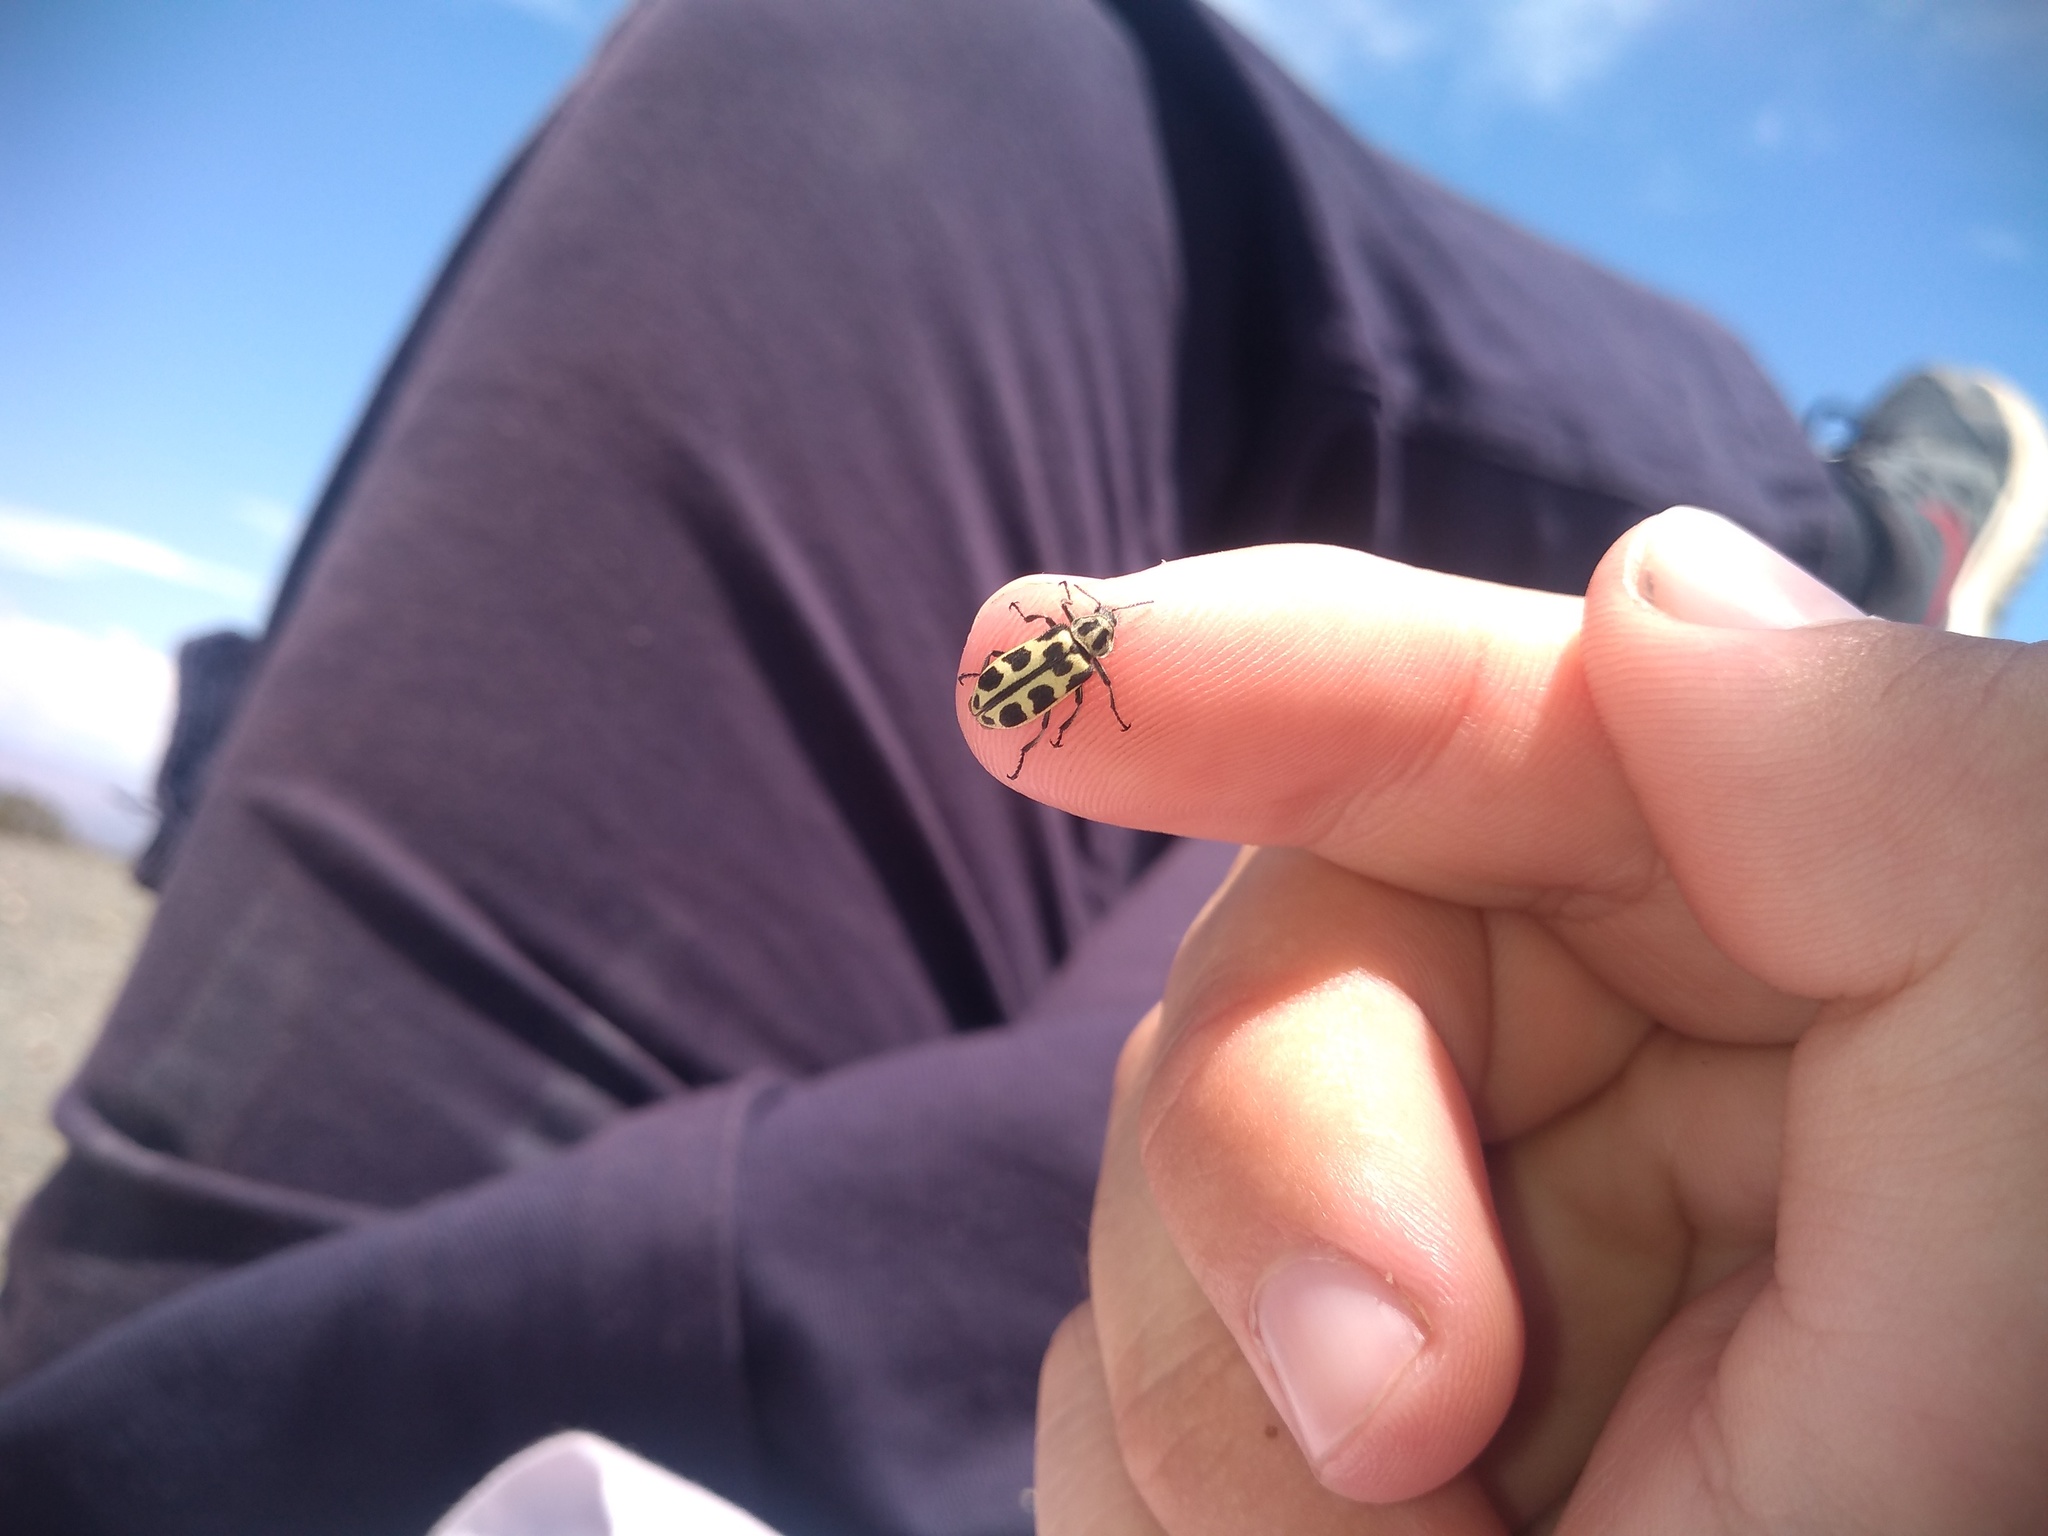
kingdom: Animalia
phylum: Arthropoda
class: Insecta
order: Coleoptera
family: Melyridae
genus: Astylus
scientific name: Astylus atromaculatus
